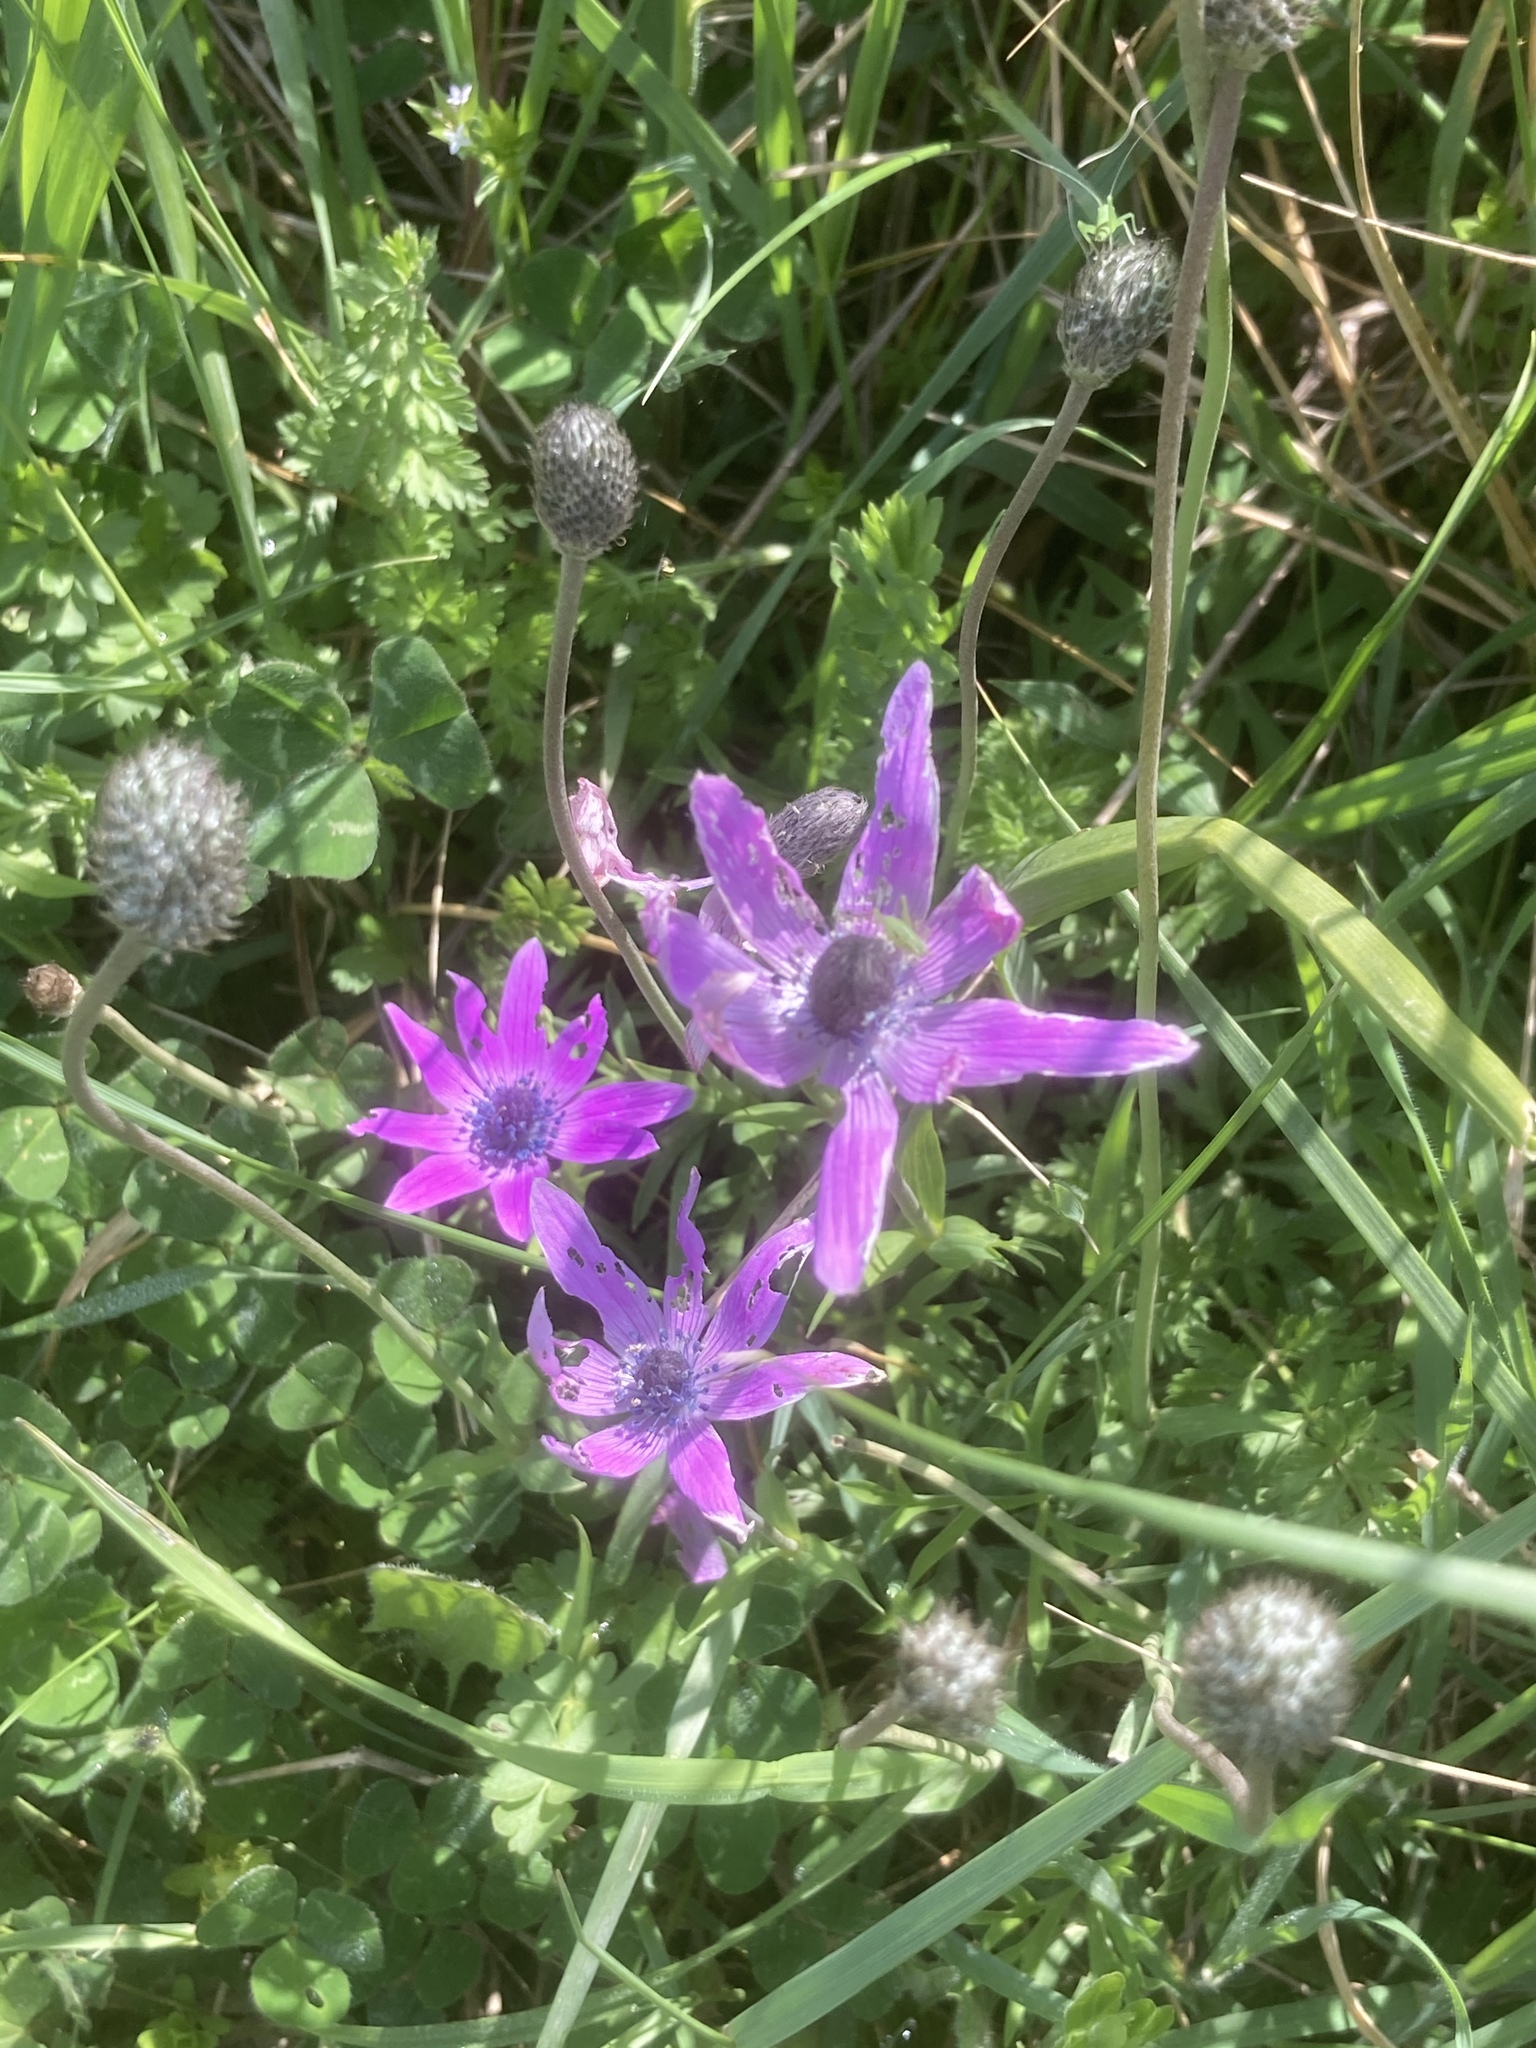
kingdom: Plantae
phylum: Tracheophyta
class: Magnoliopsida
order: Ranunculales
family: Ranunculaceae
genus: Anemone
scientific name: Anemone pavonina
